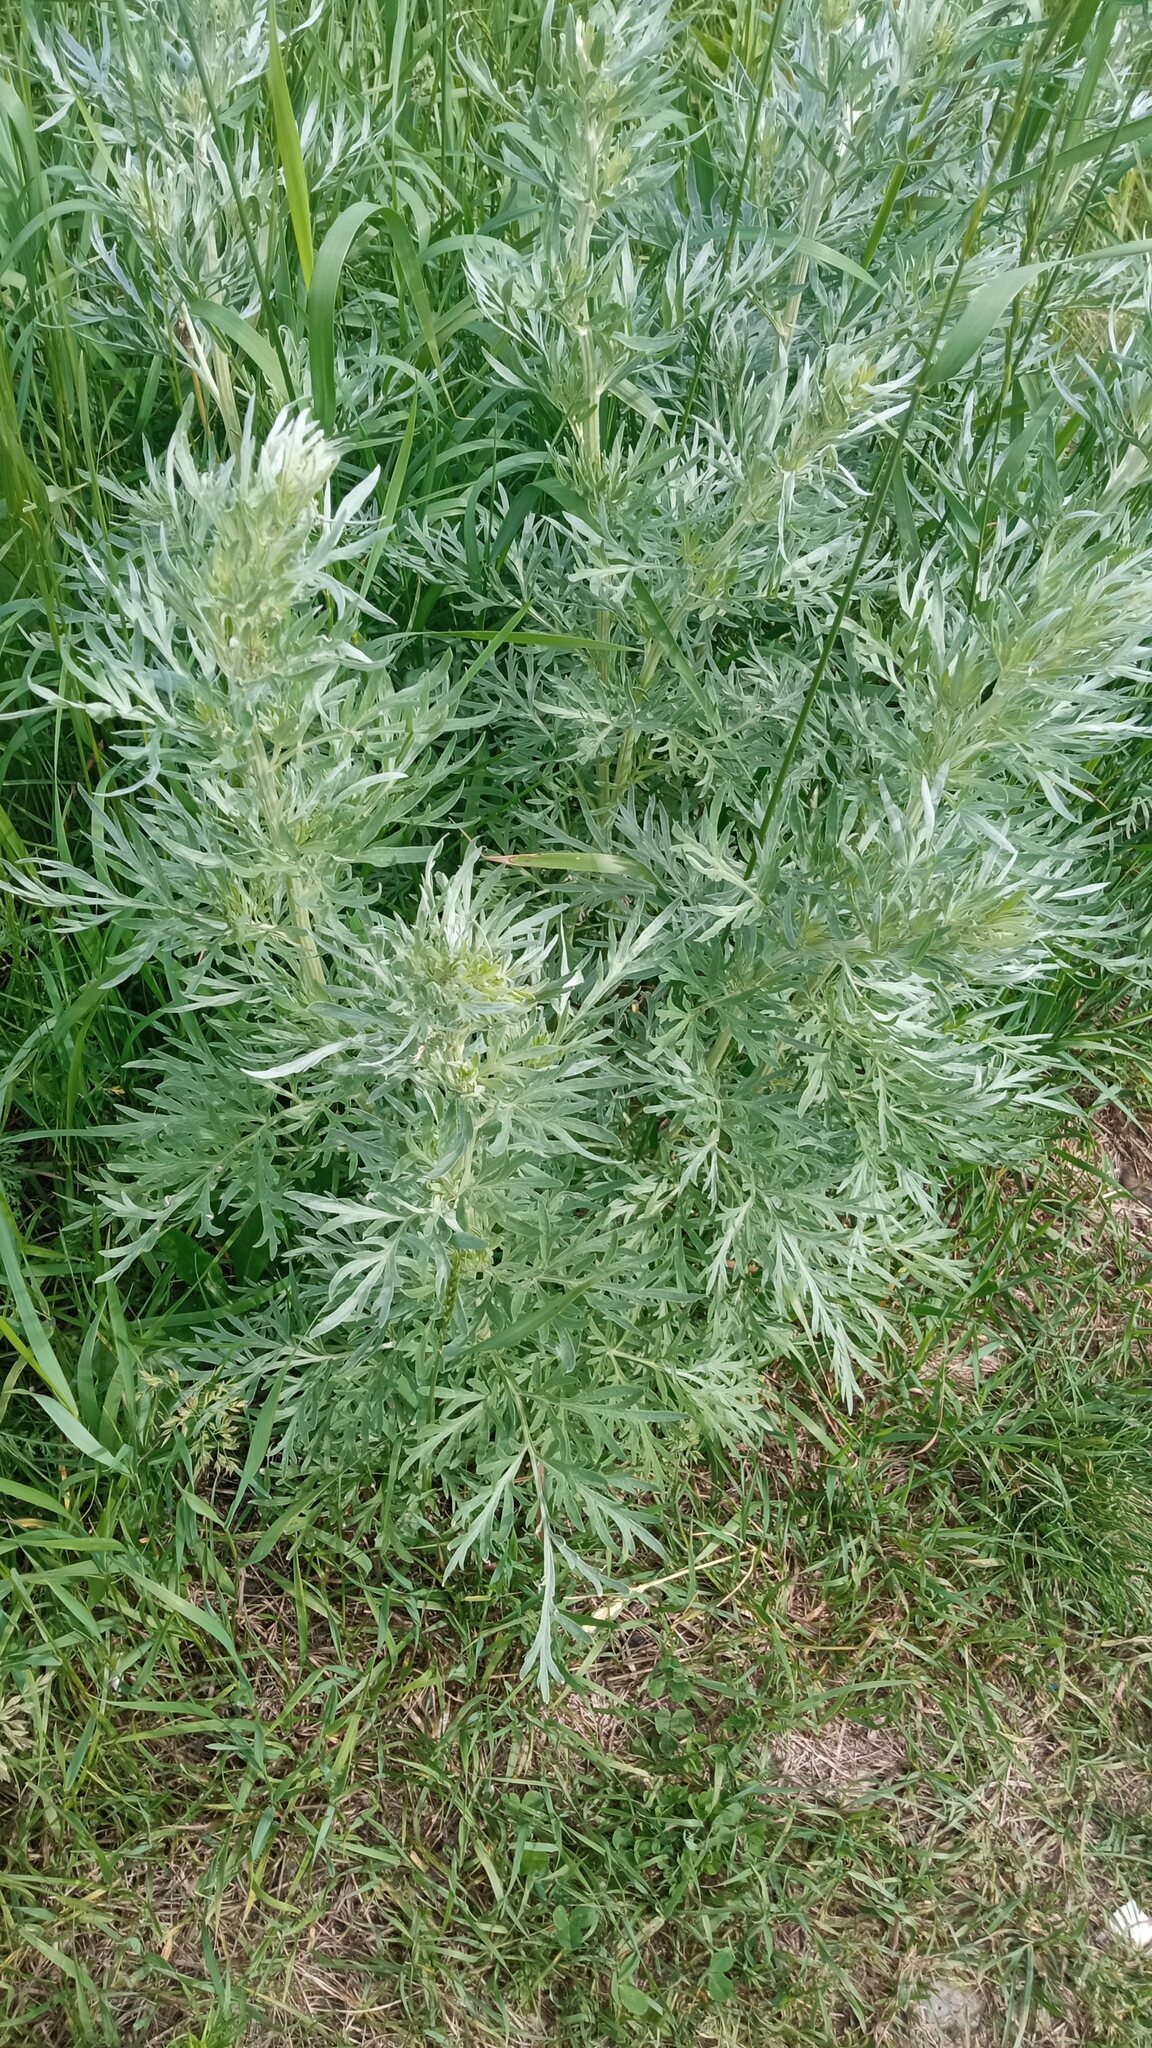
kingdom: Plantae
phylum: Tracheophyta
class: Magnoliopsida
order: Asterales
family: Asteraceae
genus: Artemisia
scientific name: Artemisia sieversiana
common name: Sieversian wormwood
